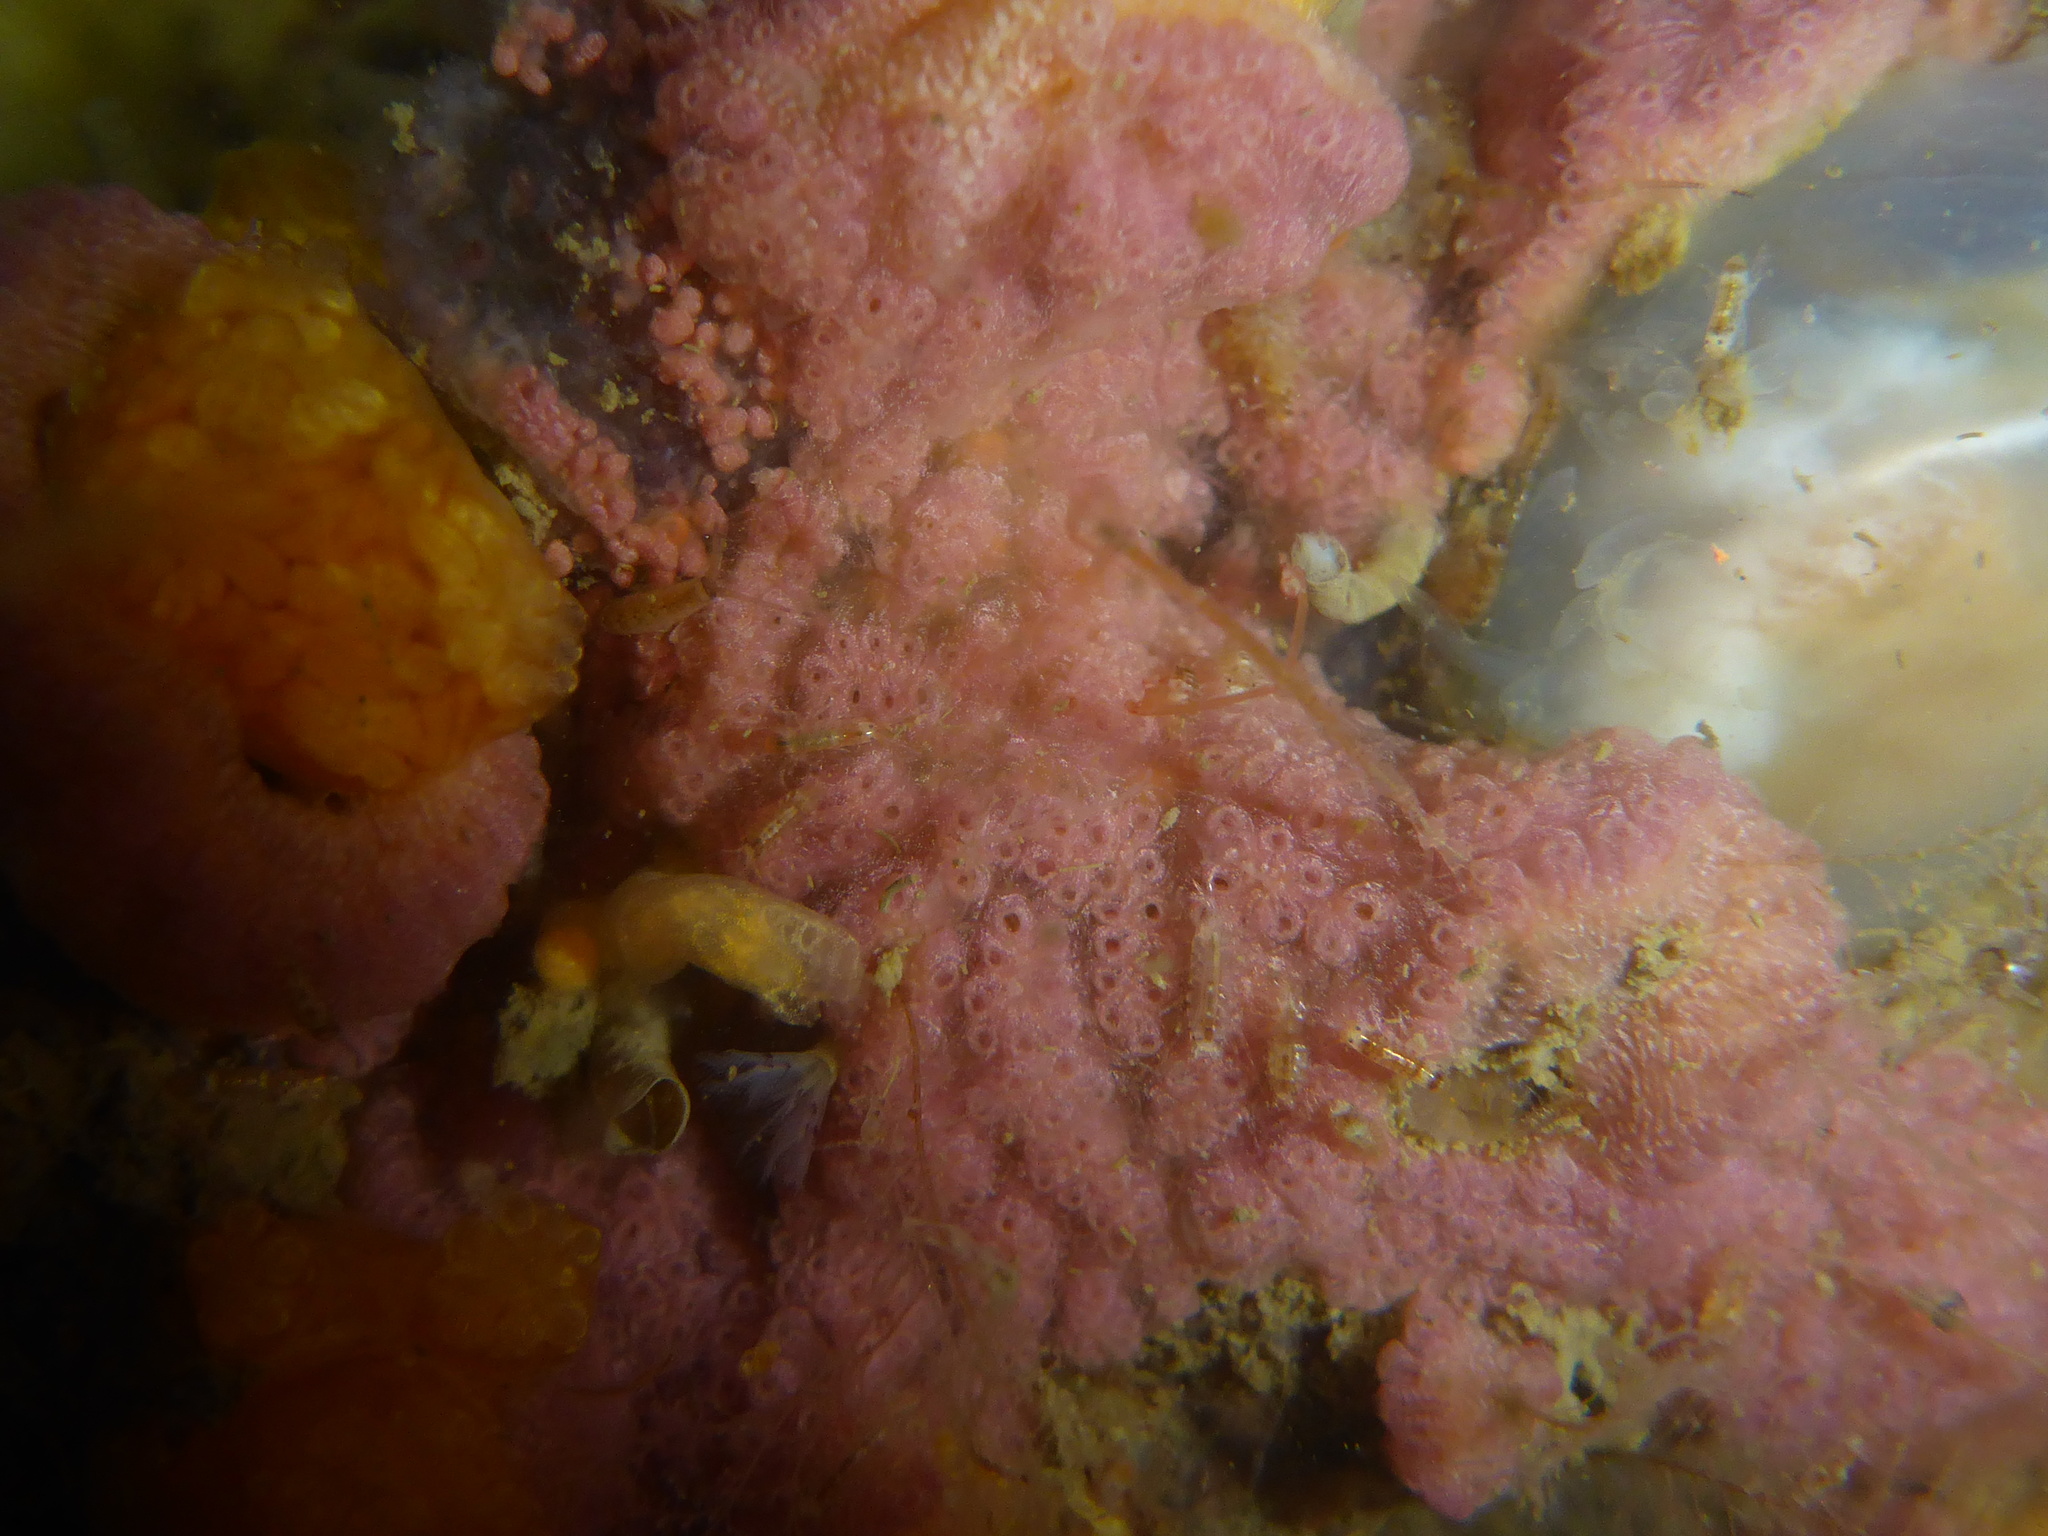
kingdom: Animalia
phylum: Chordata
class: Ascidiacea
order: Stolidobranchia
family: Styelidae
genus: Botrylloides
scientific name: Botrylloides violaceus
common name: Colonial sea squirt
